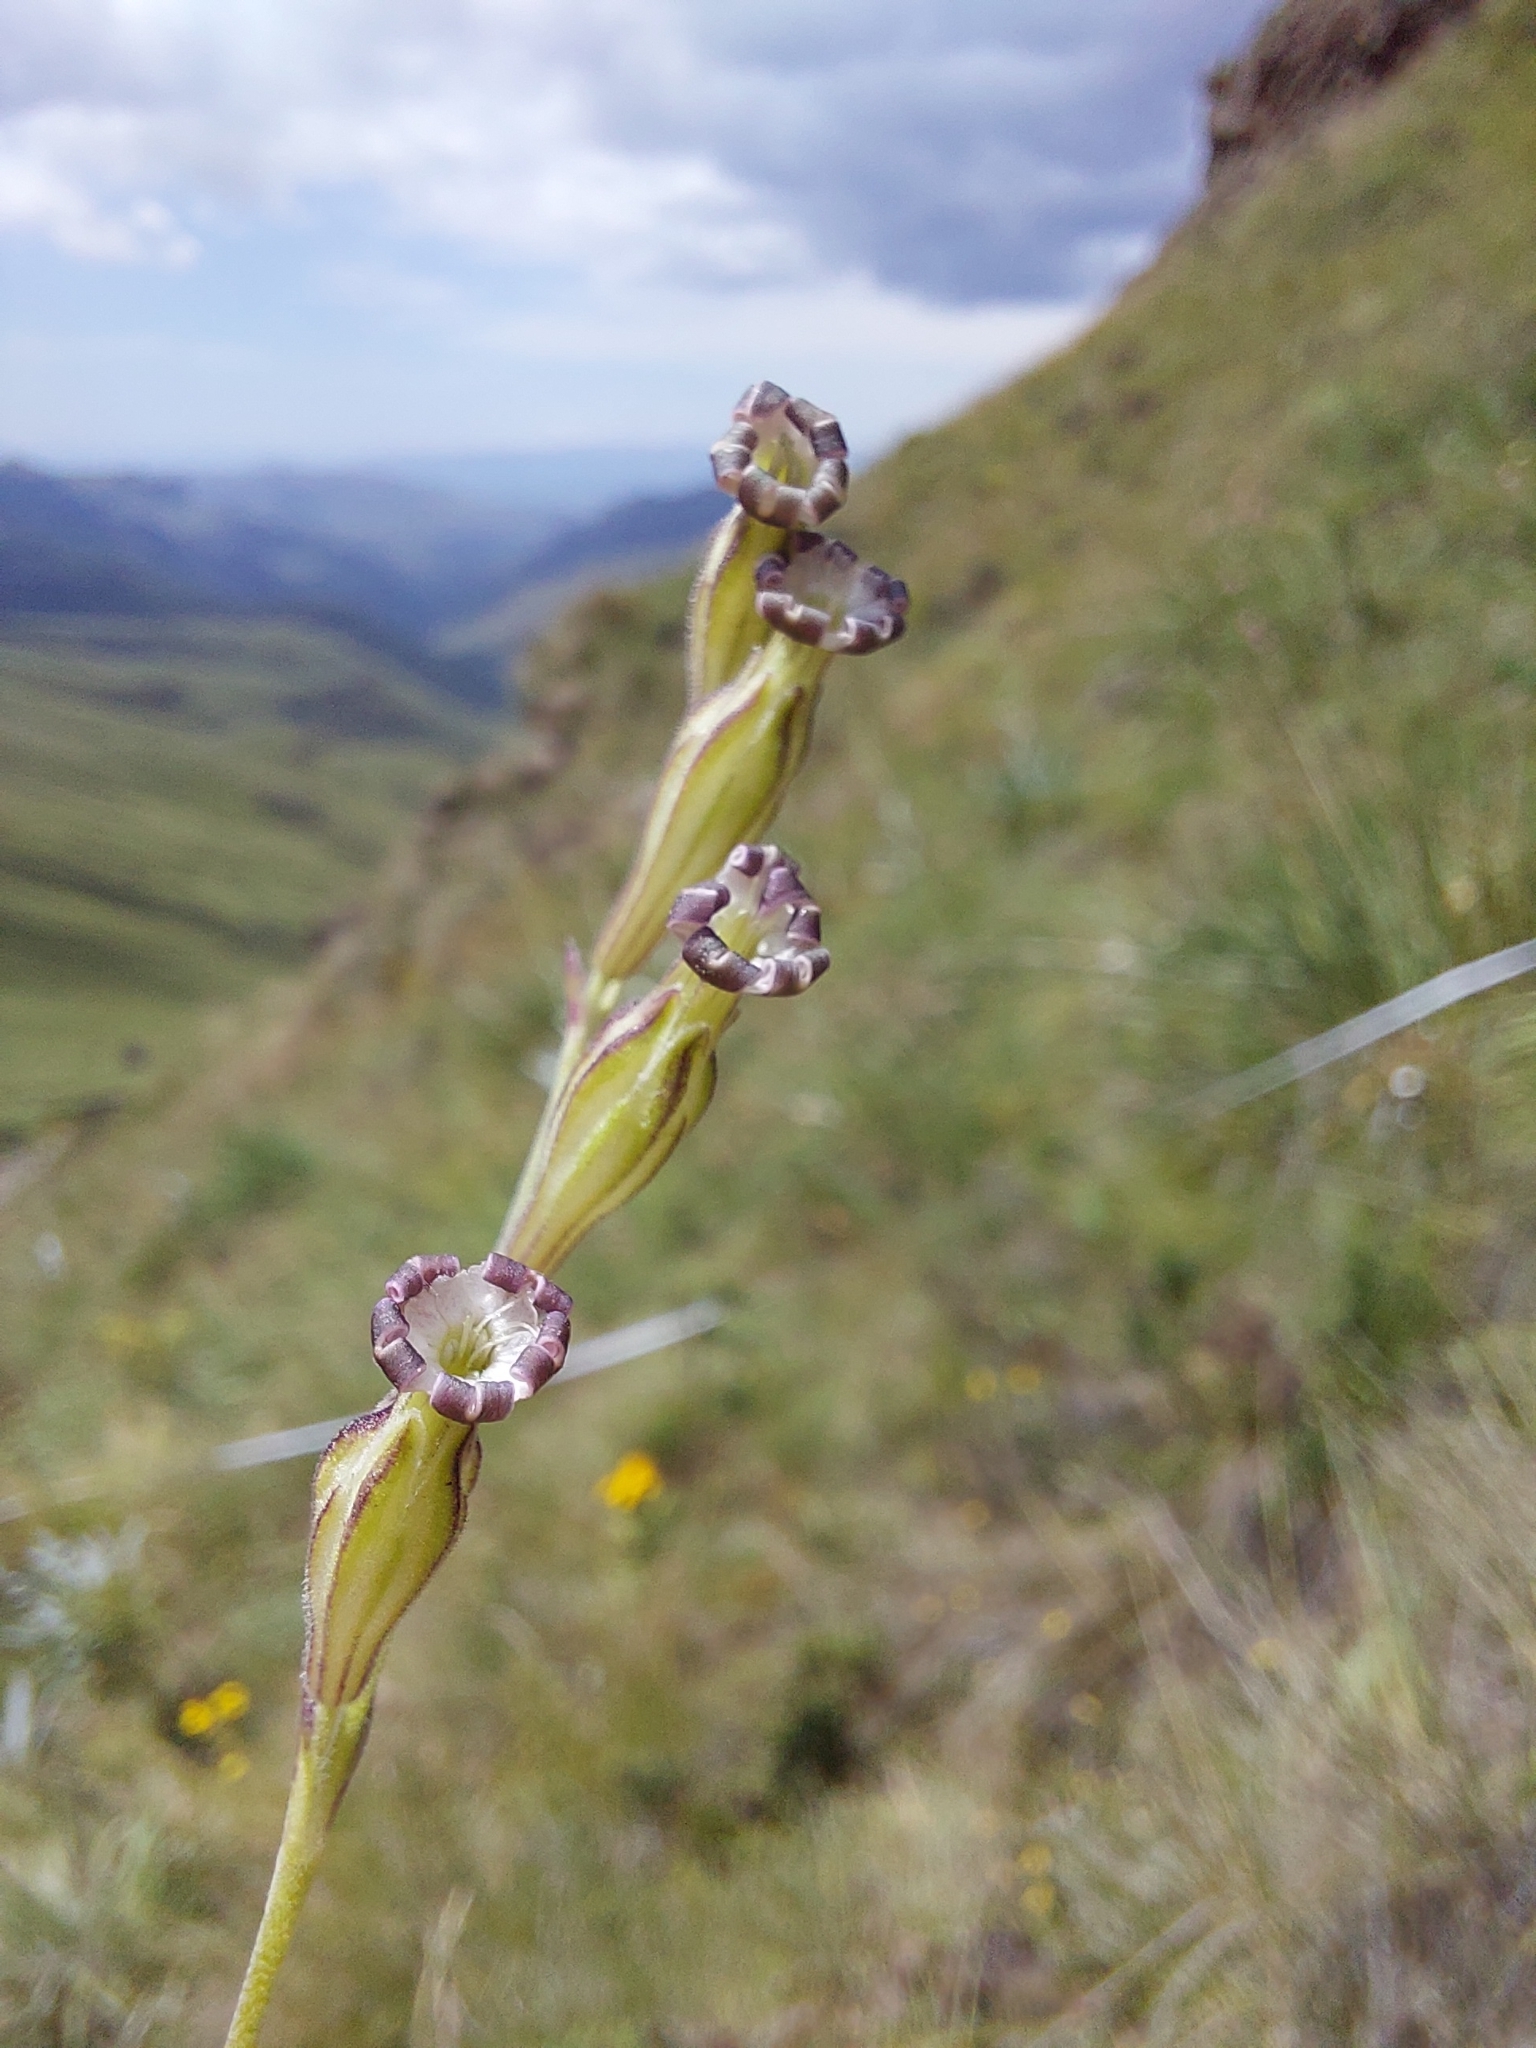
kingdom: Plantae
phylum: Tracheophyta
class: Magnoliopsida
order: Caryophyllales
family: Caryophyllaceae
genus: Silene
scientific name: Silene burchellii
